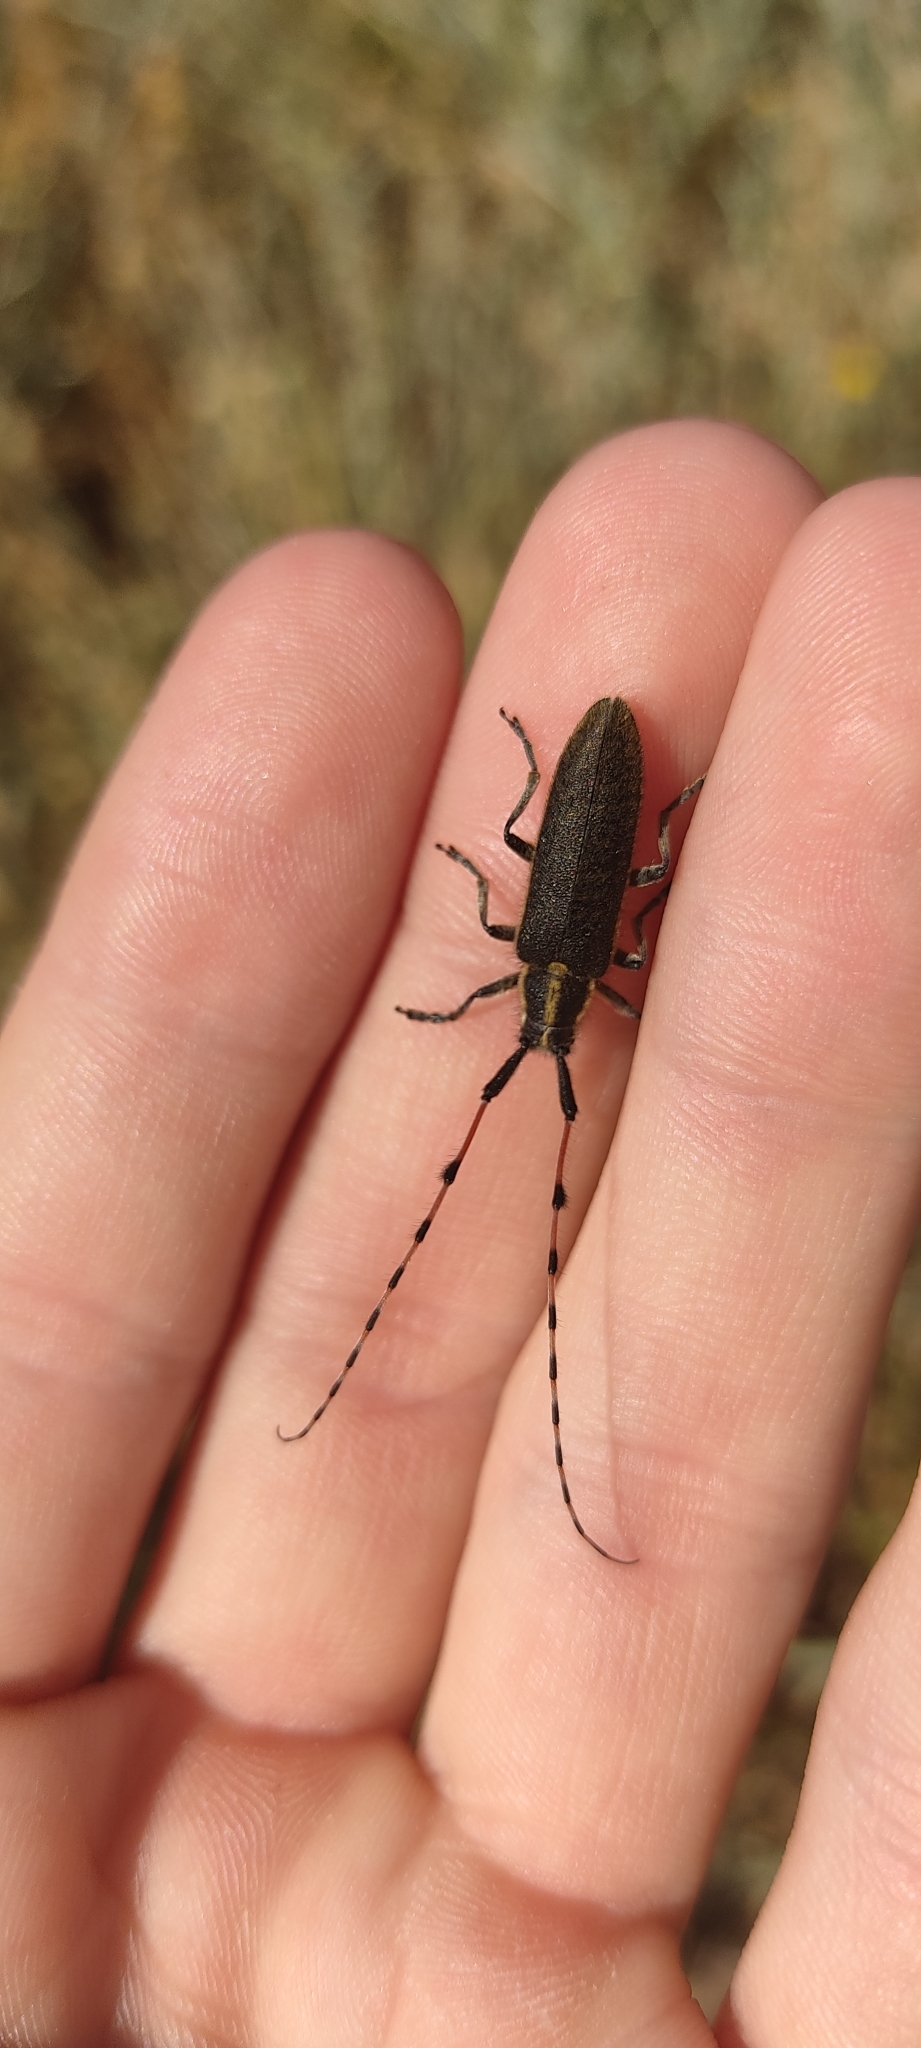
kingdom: Animalia
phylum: Arthropoda
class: Insecta
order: Coleoptera
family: Cerambycidae
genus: Agapanthia
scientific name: Agapanthia dahlii
